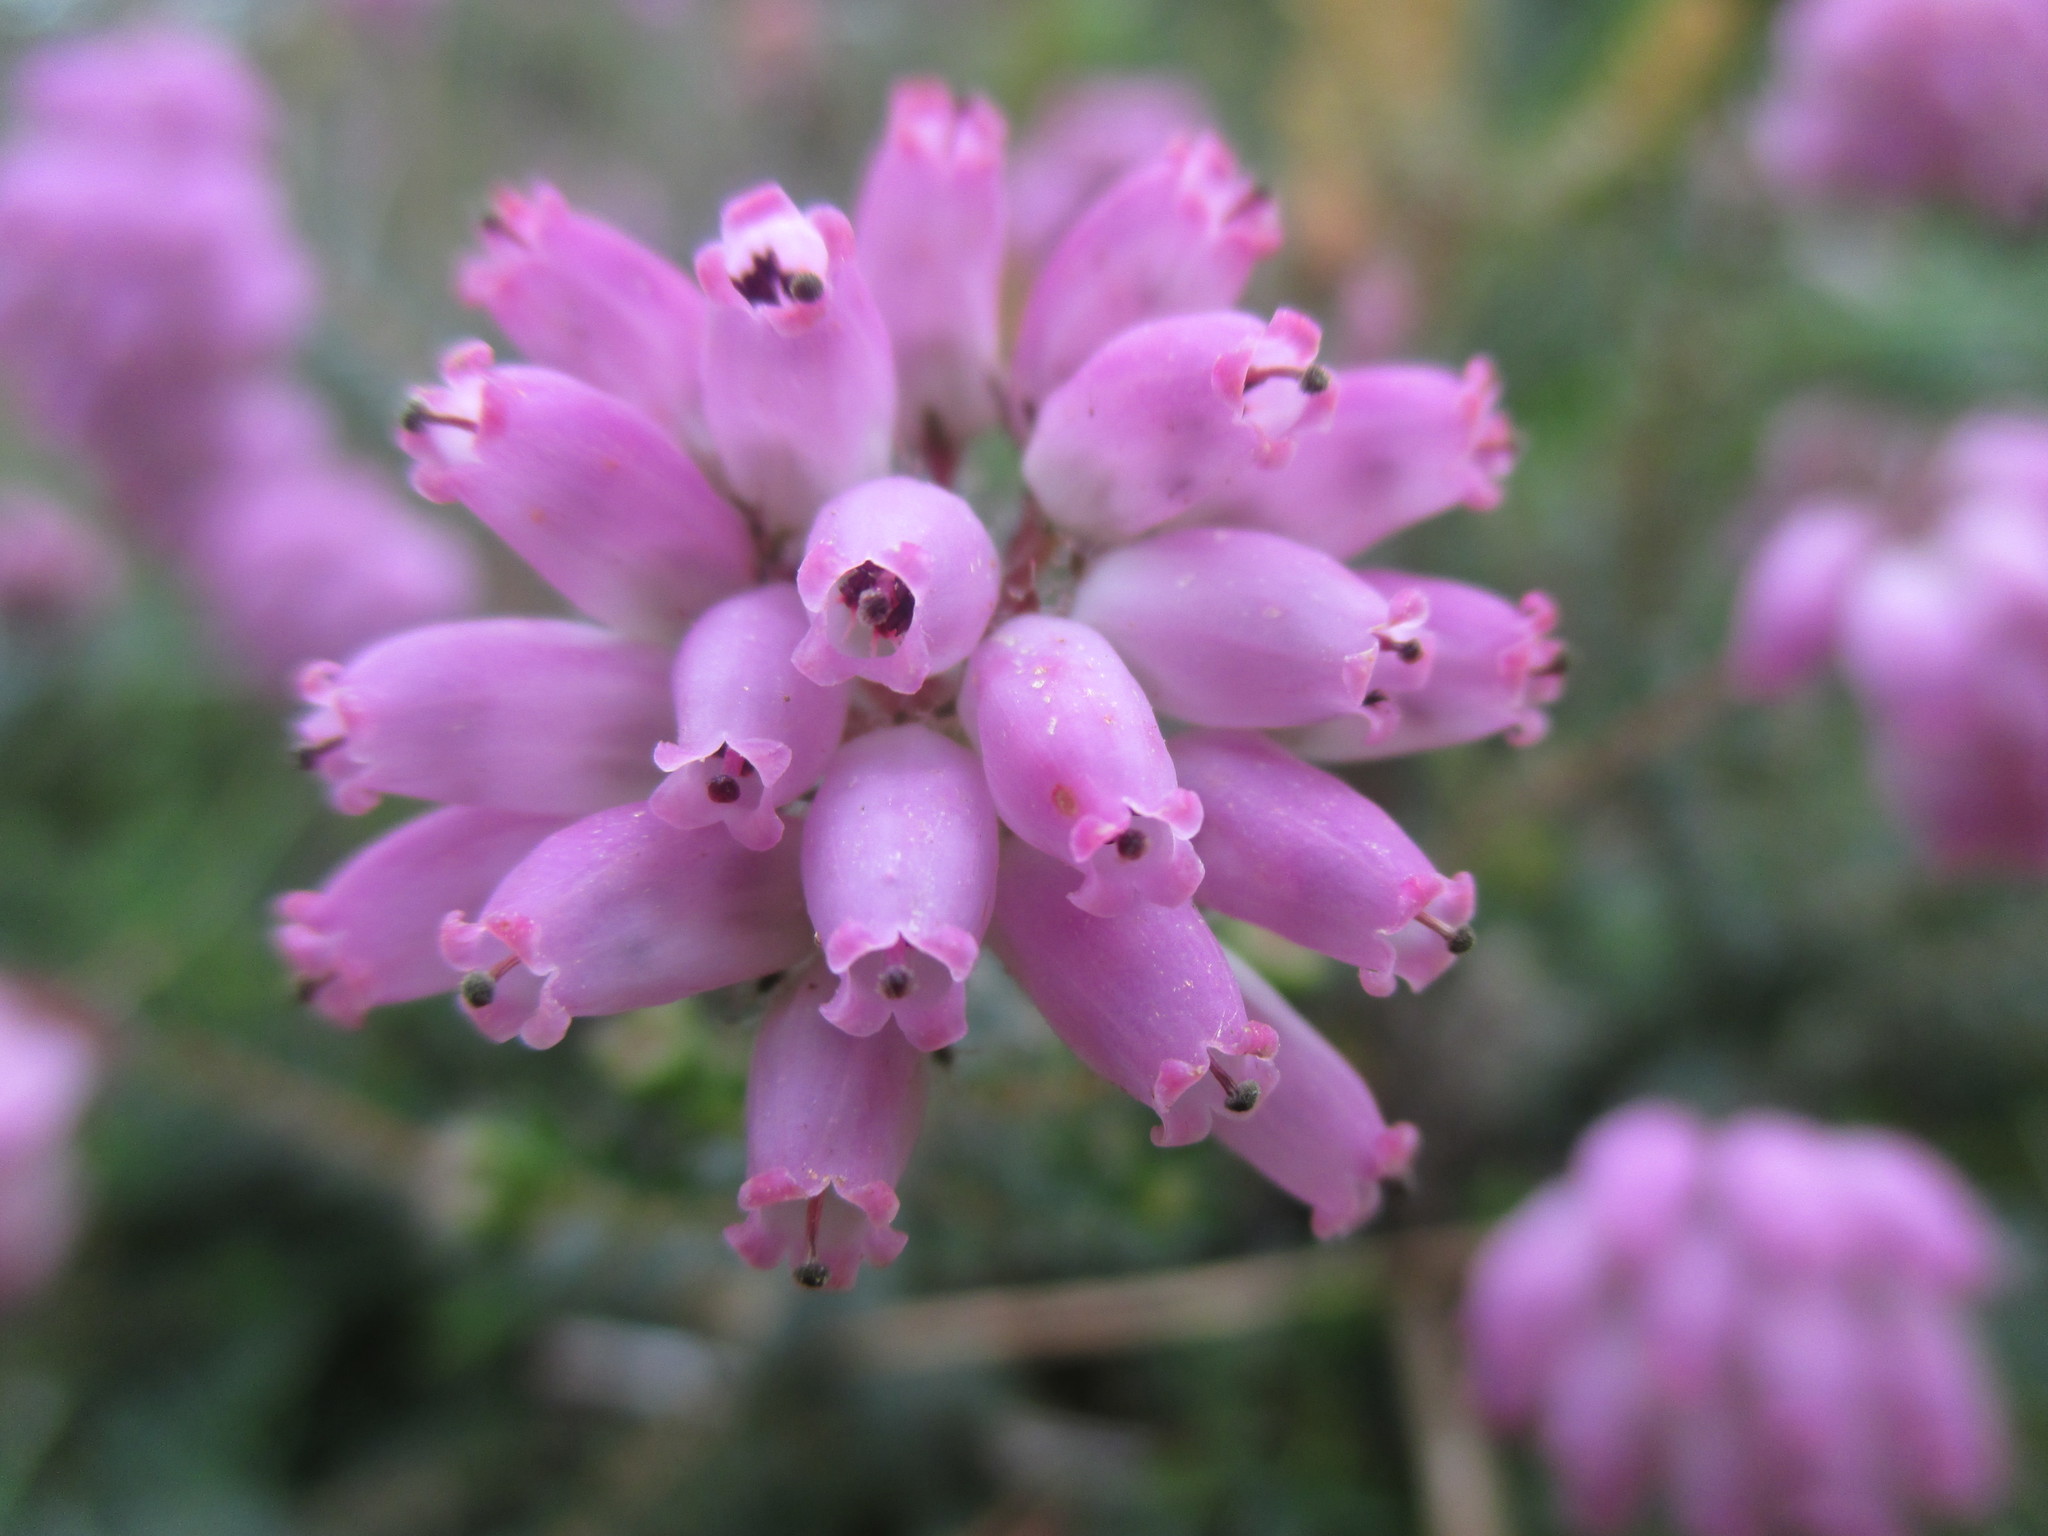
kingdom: Plantae
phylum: Tracheophyta
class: Magnoliopsida
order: Ericales
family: Ericaceae
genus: Erica
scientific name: Erica mackayana
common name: Mackay's heath
